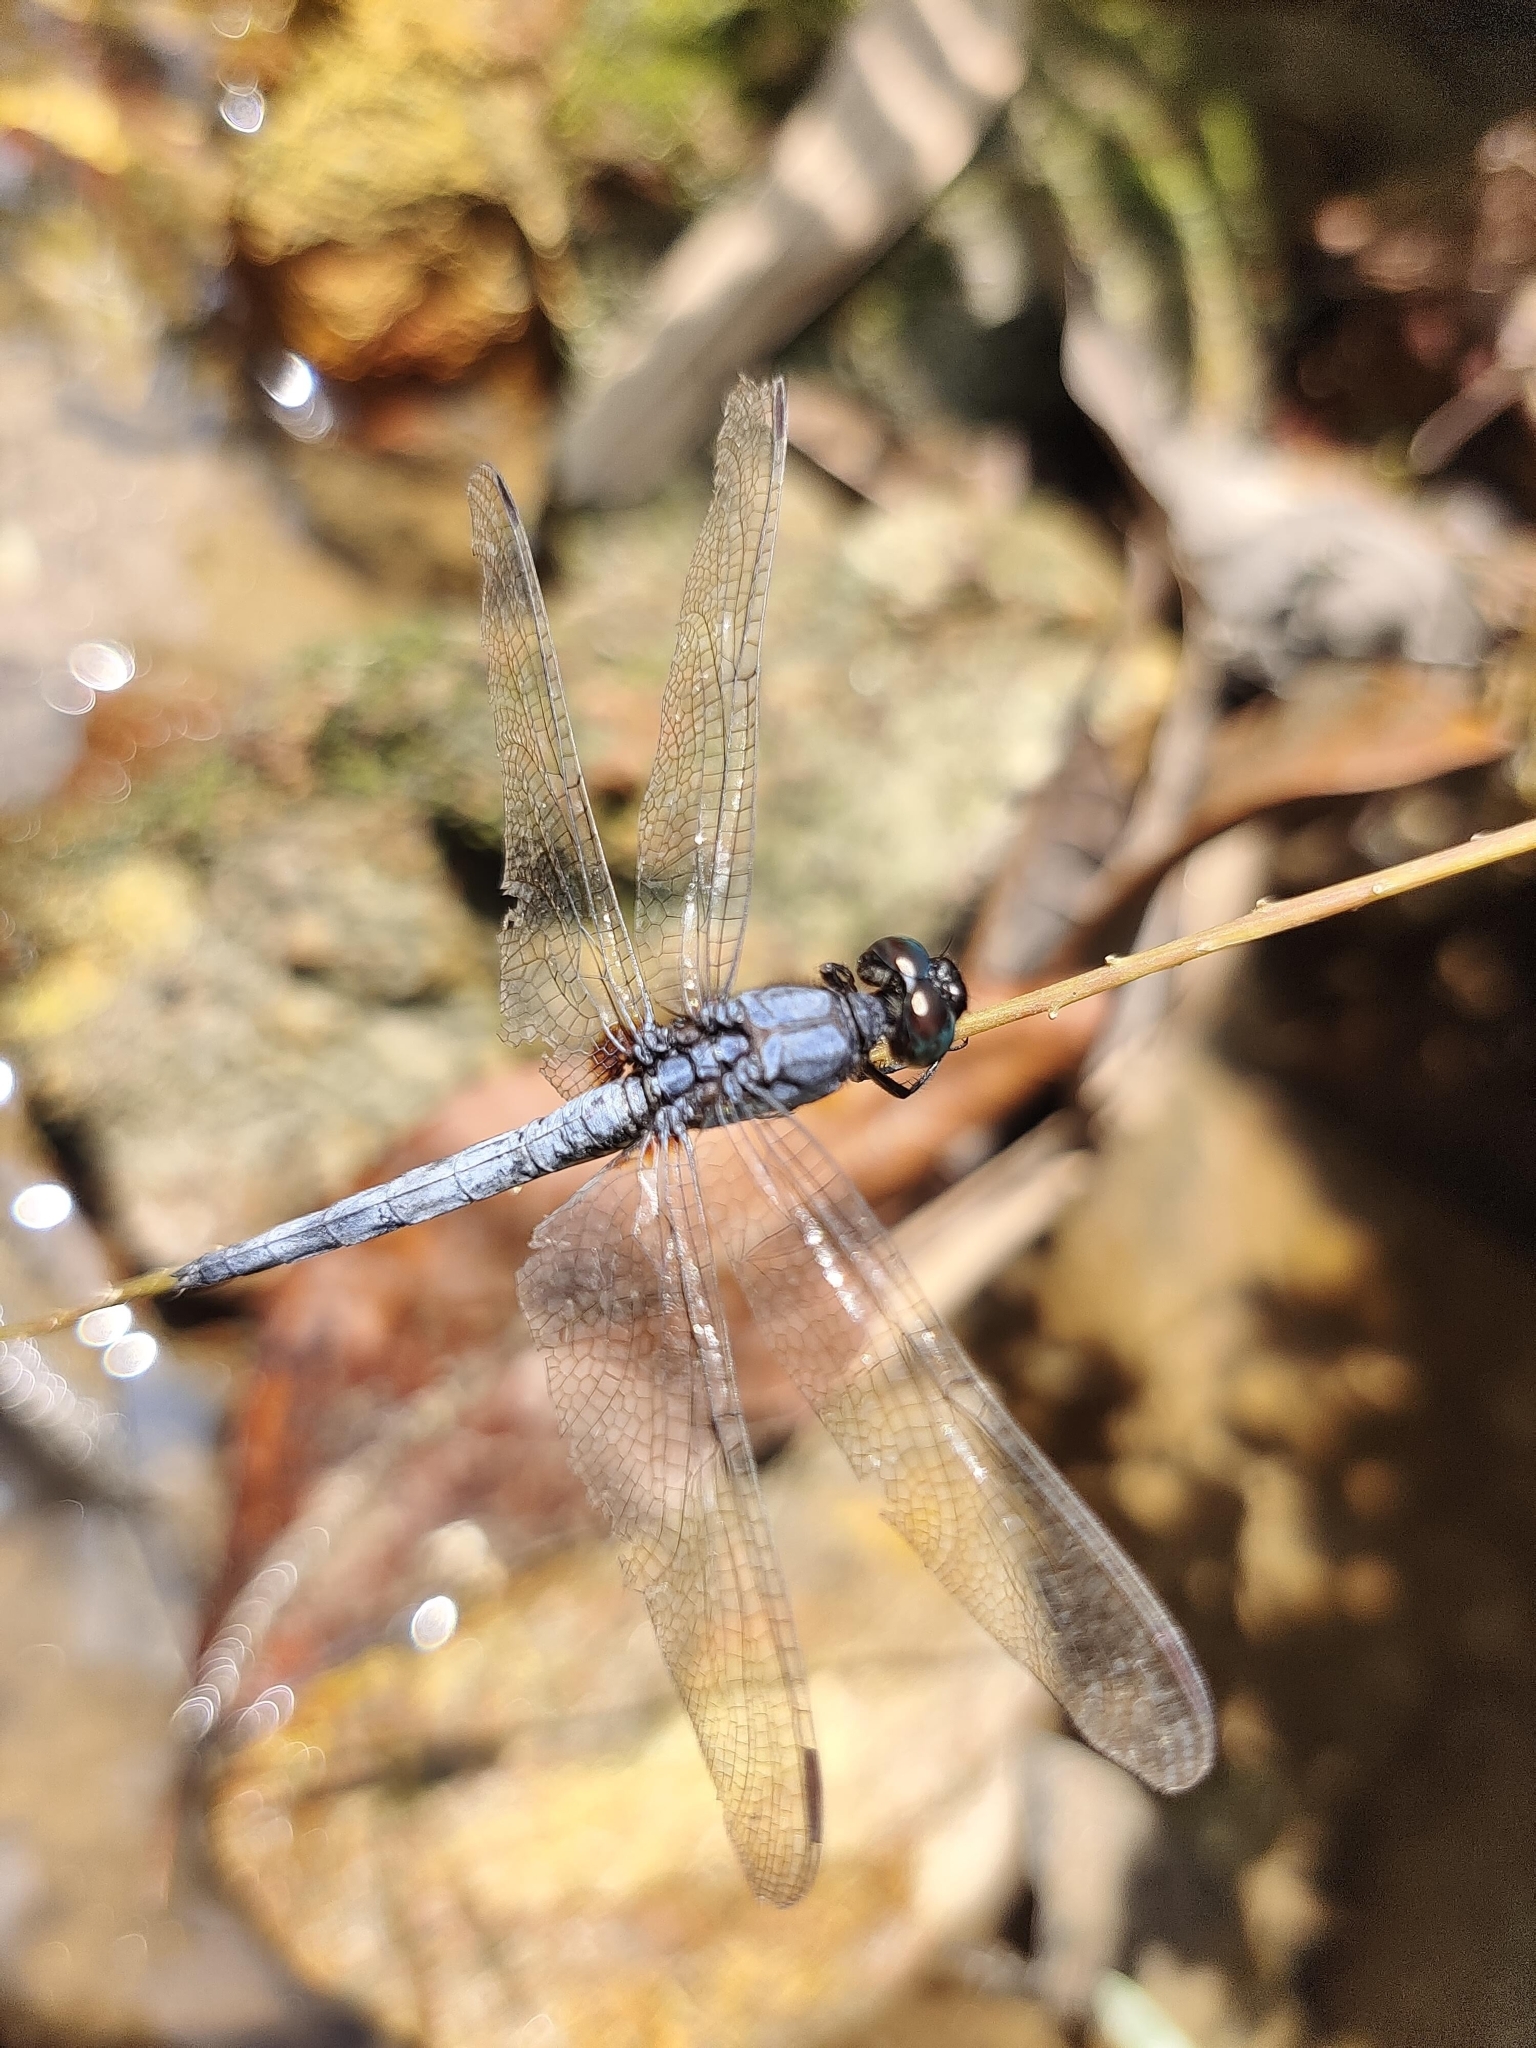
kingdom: Animalia
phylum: Arthropoda
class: Insecta
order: Odonata
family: Libellulidae
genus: Orthetrum
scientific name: Orthetrum glaucum
